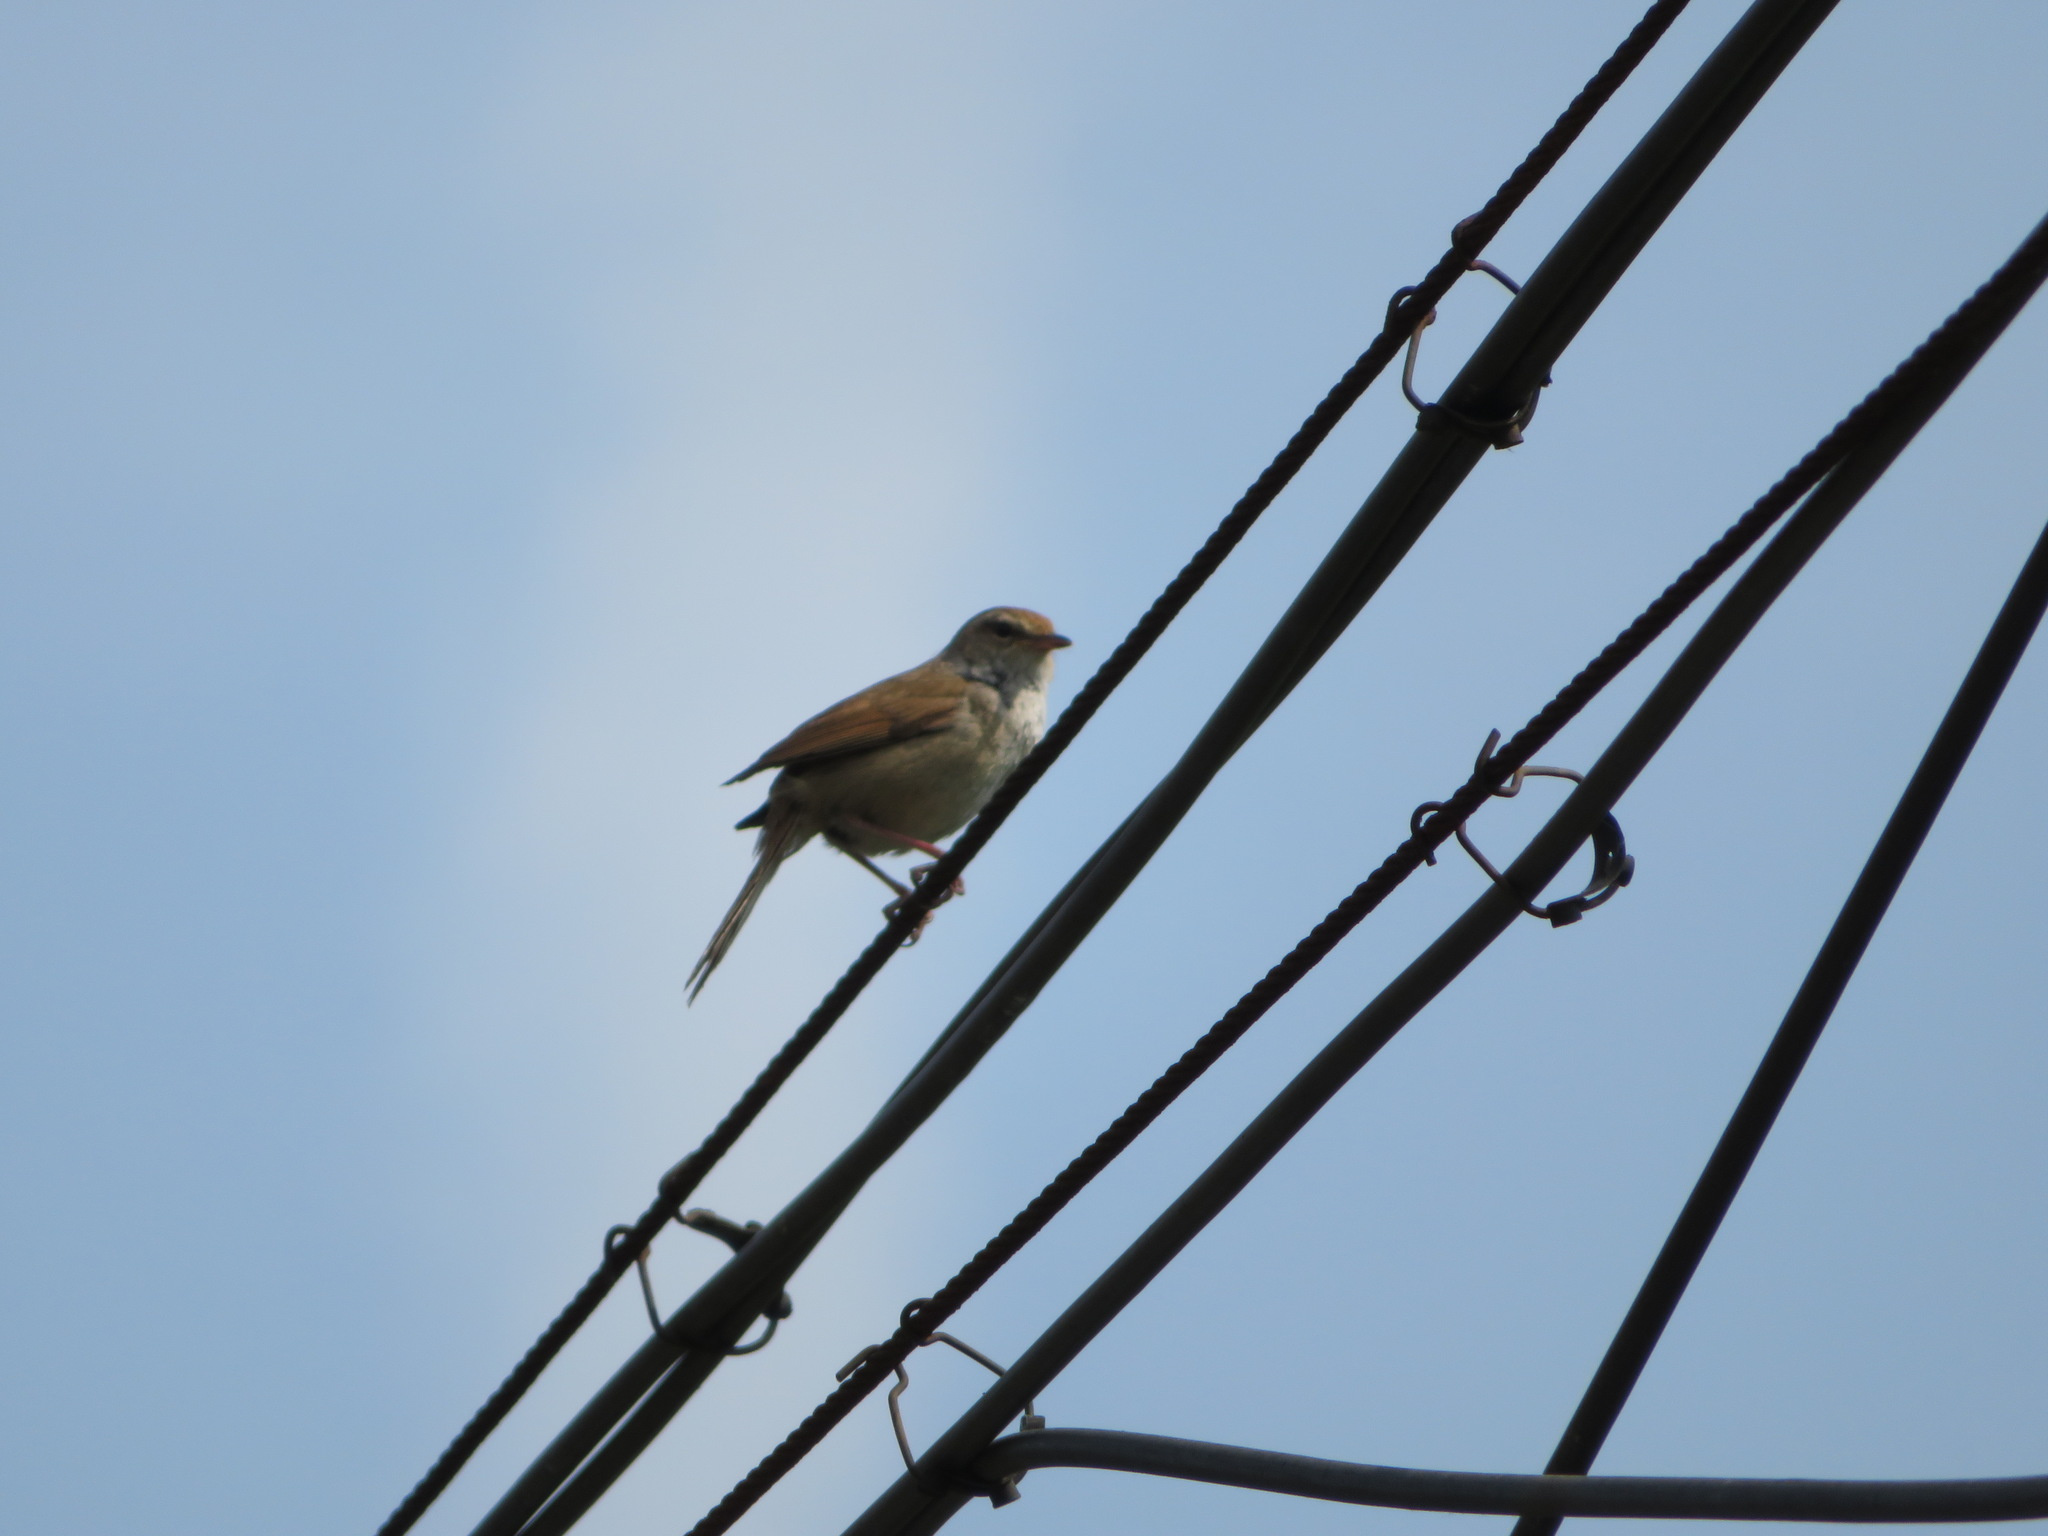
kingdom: Animalia
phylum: Chordata
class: Aves
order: Passeriformes
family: Cettiidae
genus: Horornis
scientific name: Horornis diphone
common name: Japanese bush warbler
